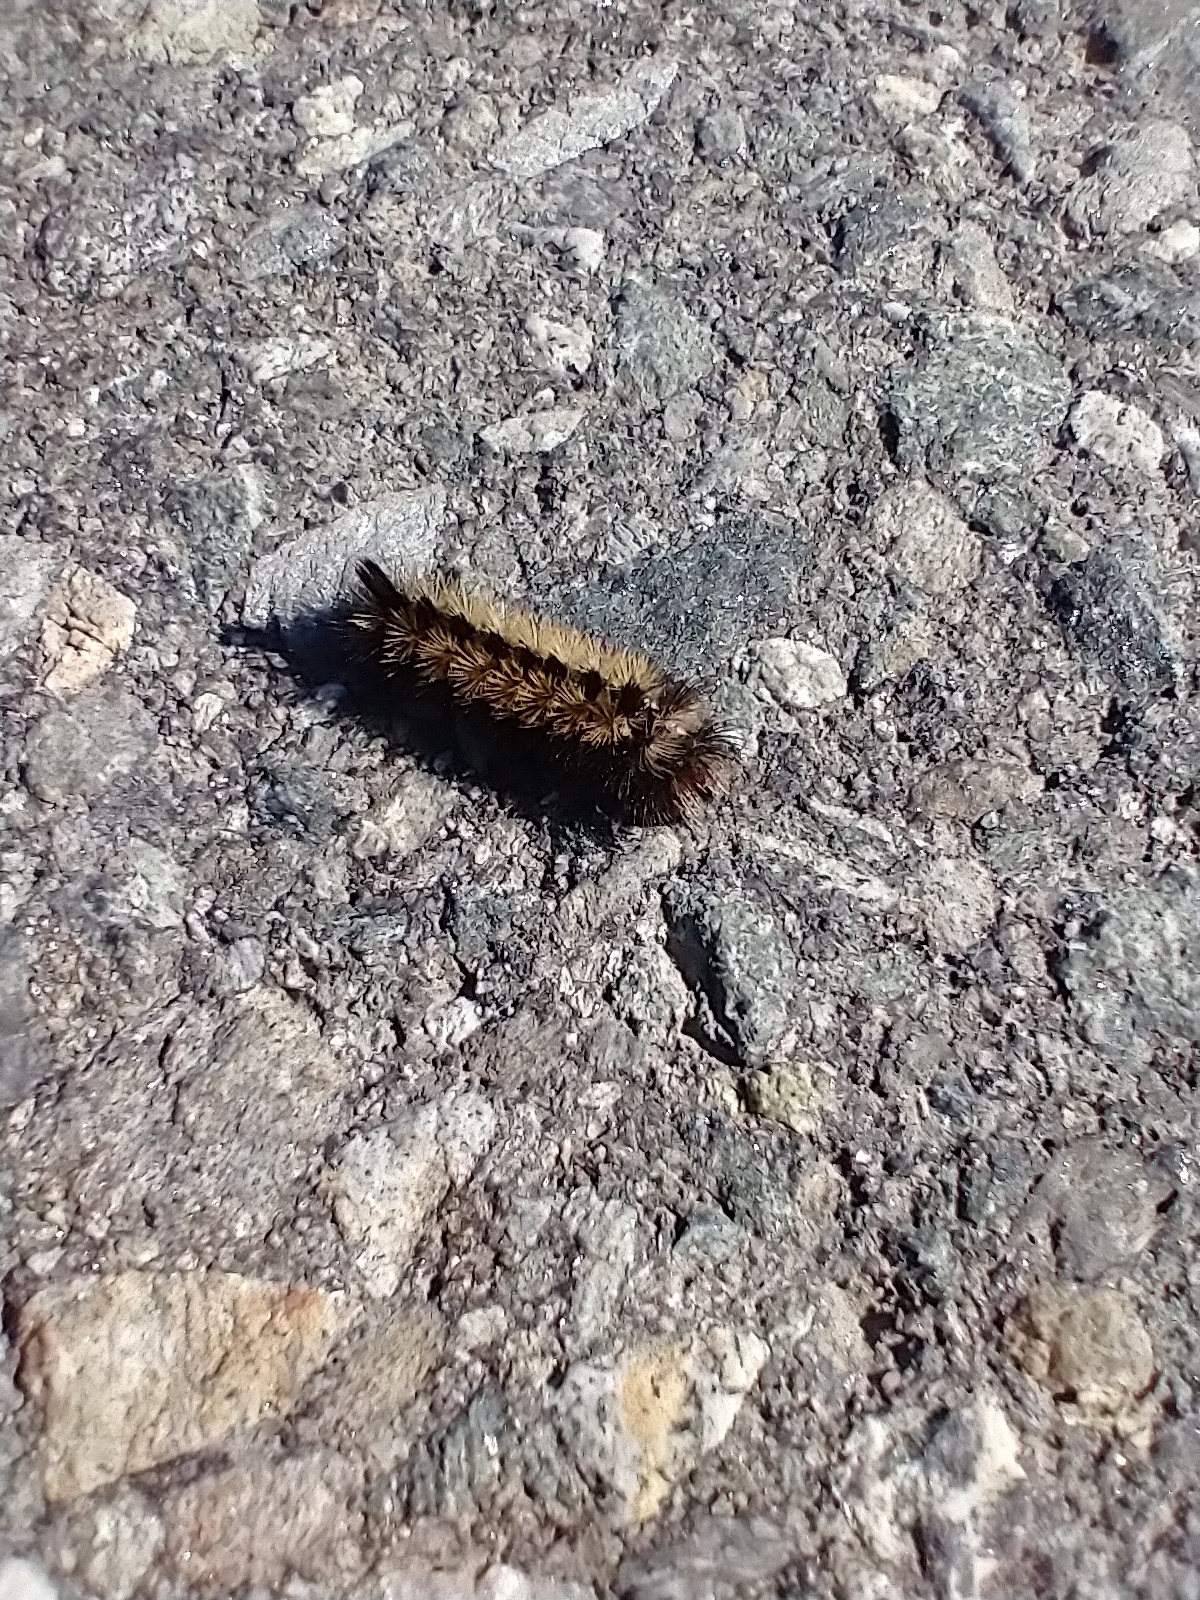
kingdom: Animalia
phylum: Arthropoda
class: Insecta
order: Lepidoptera
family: Erebidae
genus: Ctenucha
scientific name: Ctenucha virginica
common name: Virginia ctenucha moth
